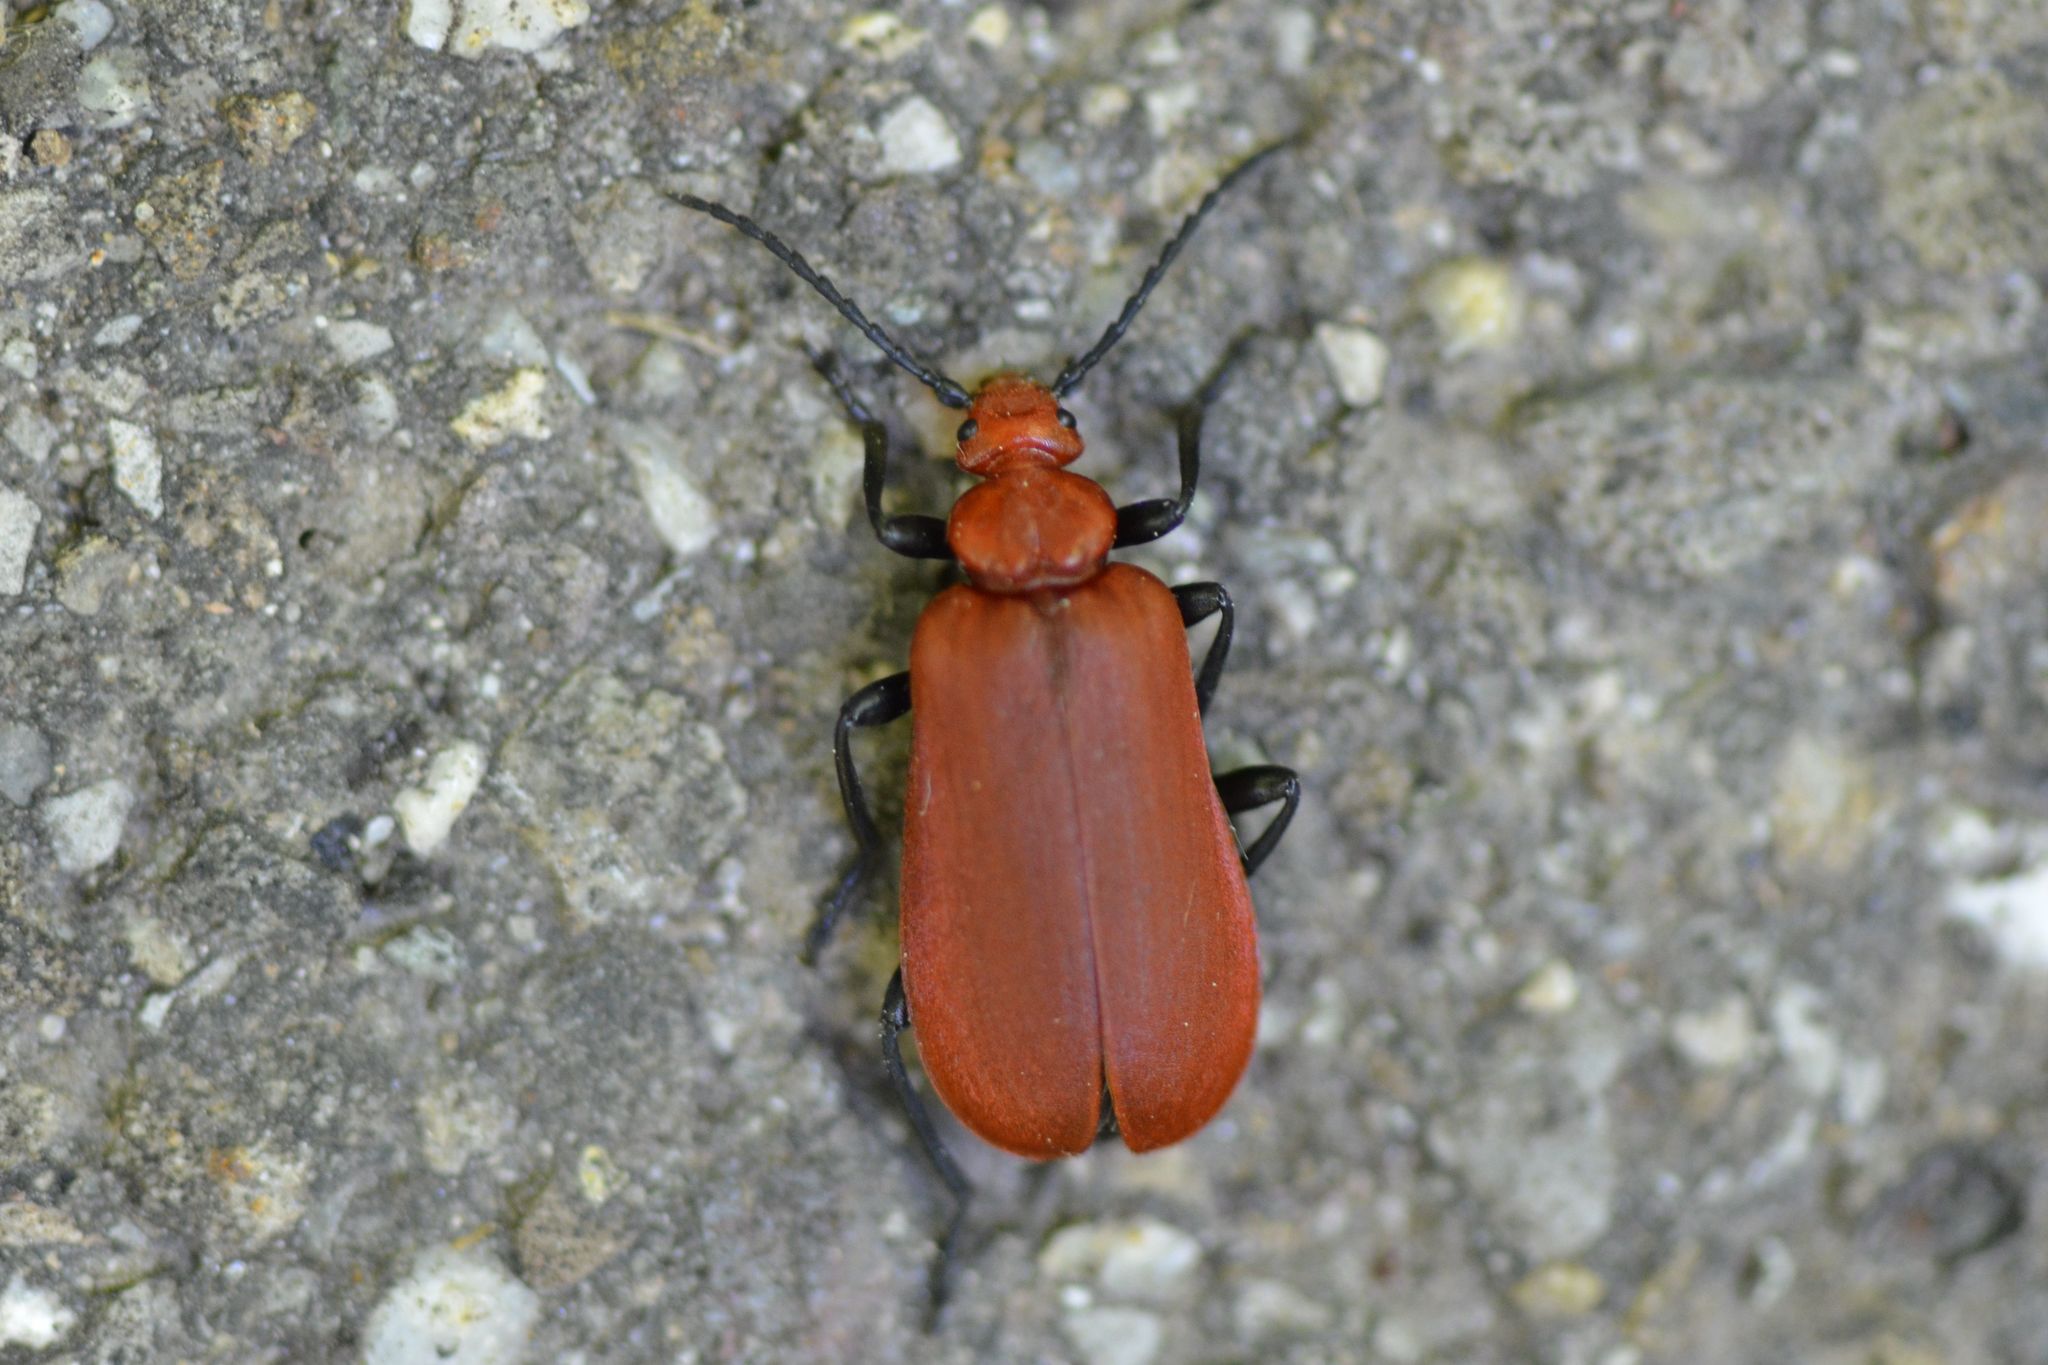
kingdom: Animalia
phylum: Arthropoda
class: Insecta
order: Coleoptera
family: Pyrochroidae
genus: Pyrochroa
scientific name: Pyrochroa serraticornis
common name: Red-headed cardinal beetle
